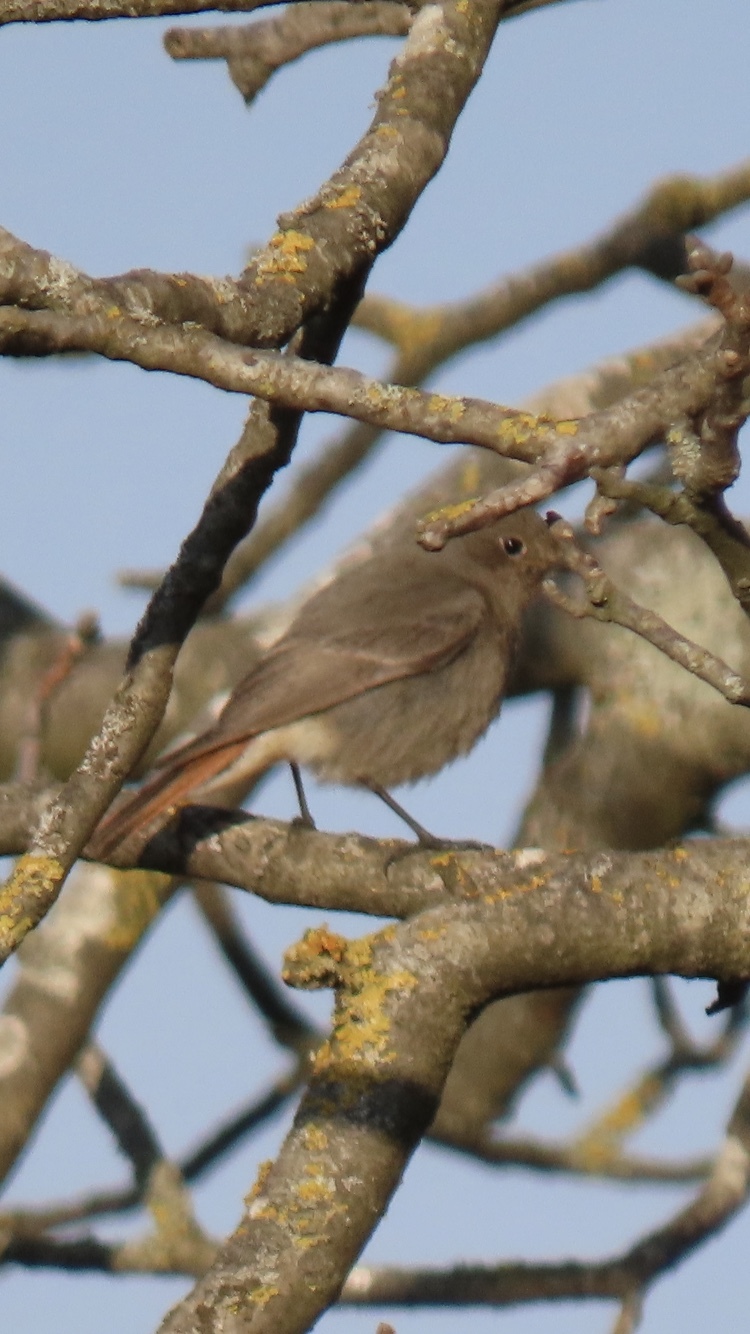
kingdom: Animalia
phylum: Chordata
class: Aves
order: Passeriformes
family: Muscicapidae
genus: Phoenicurus
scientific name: Phoenicurus ochruros
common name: Black redstart
